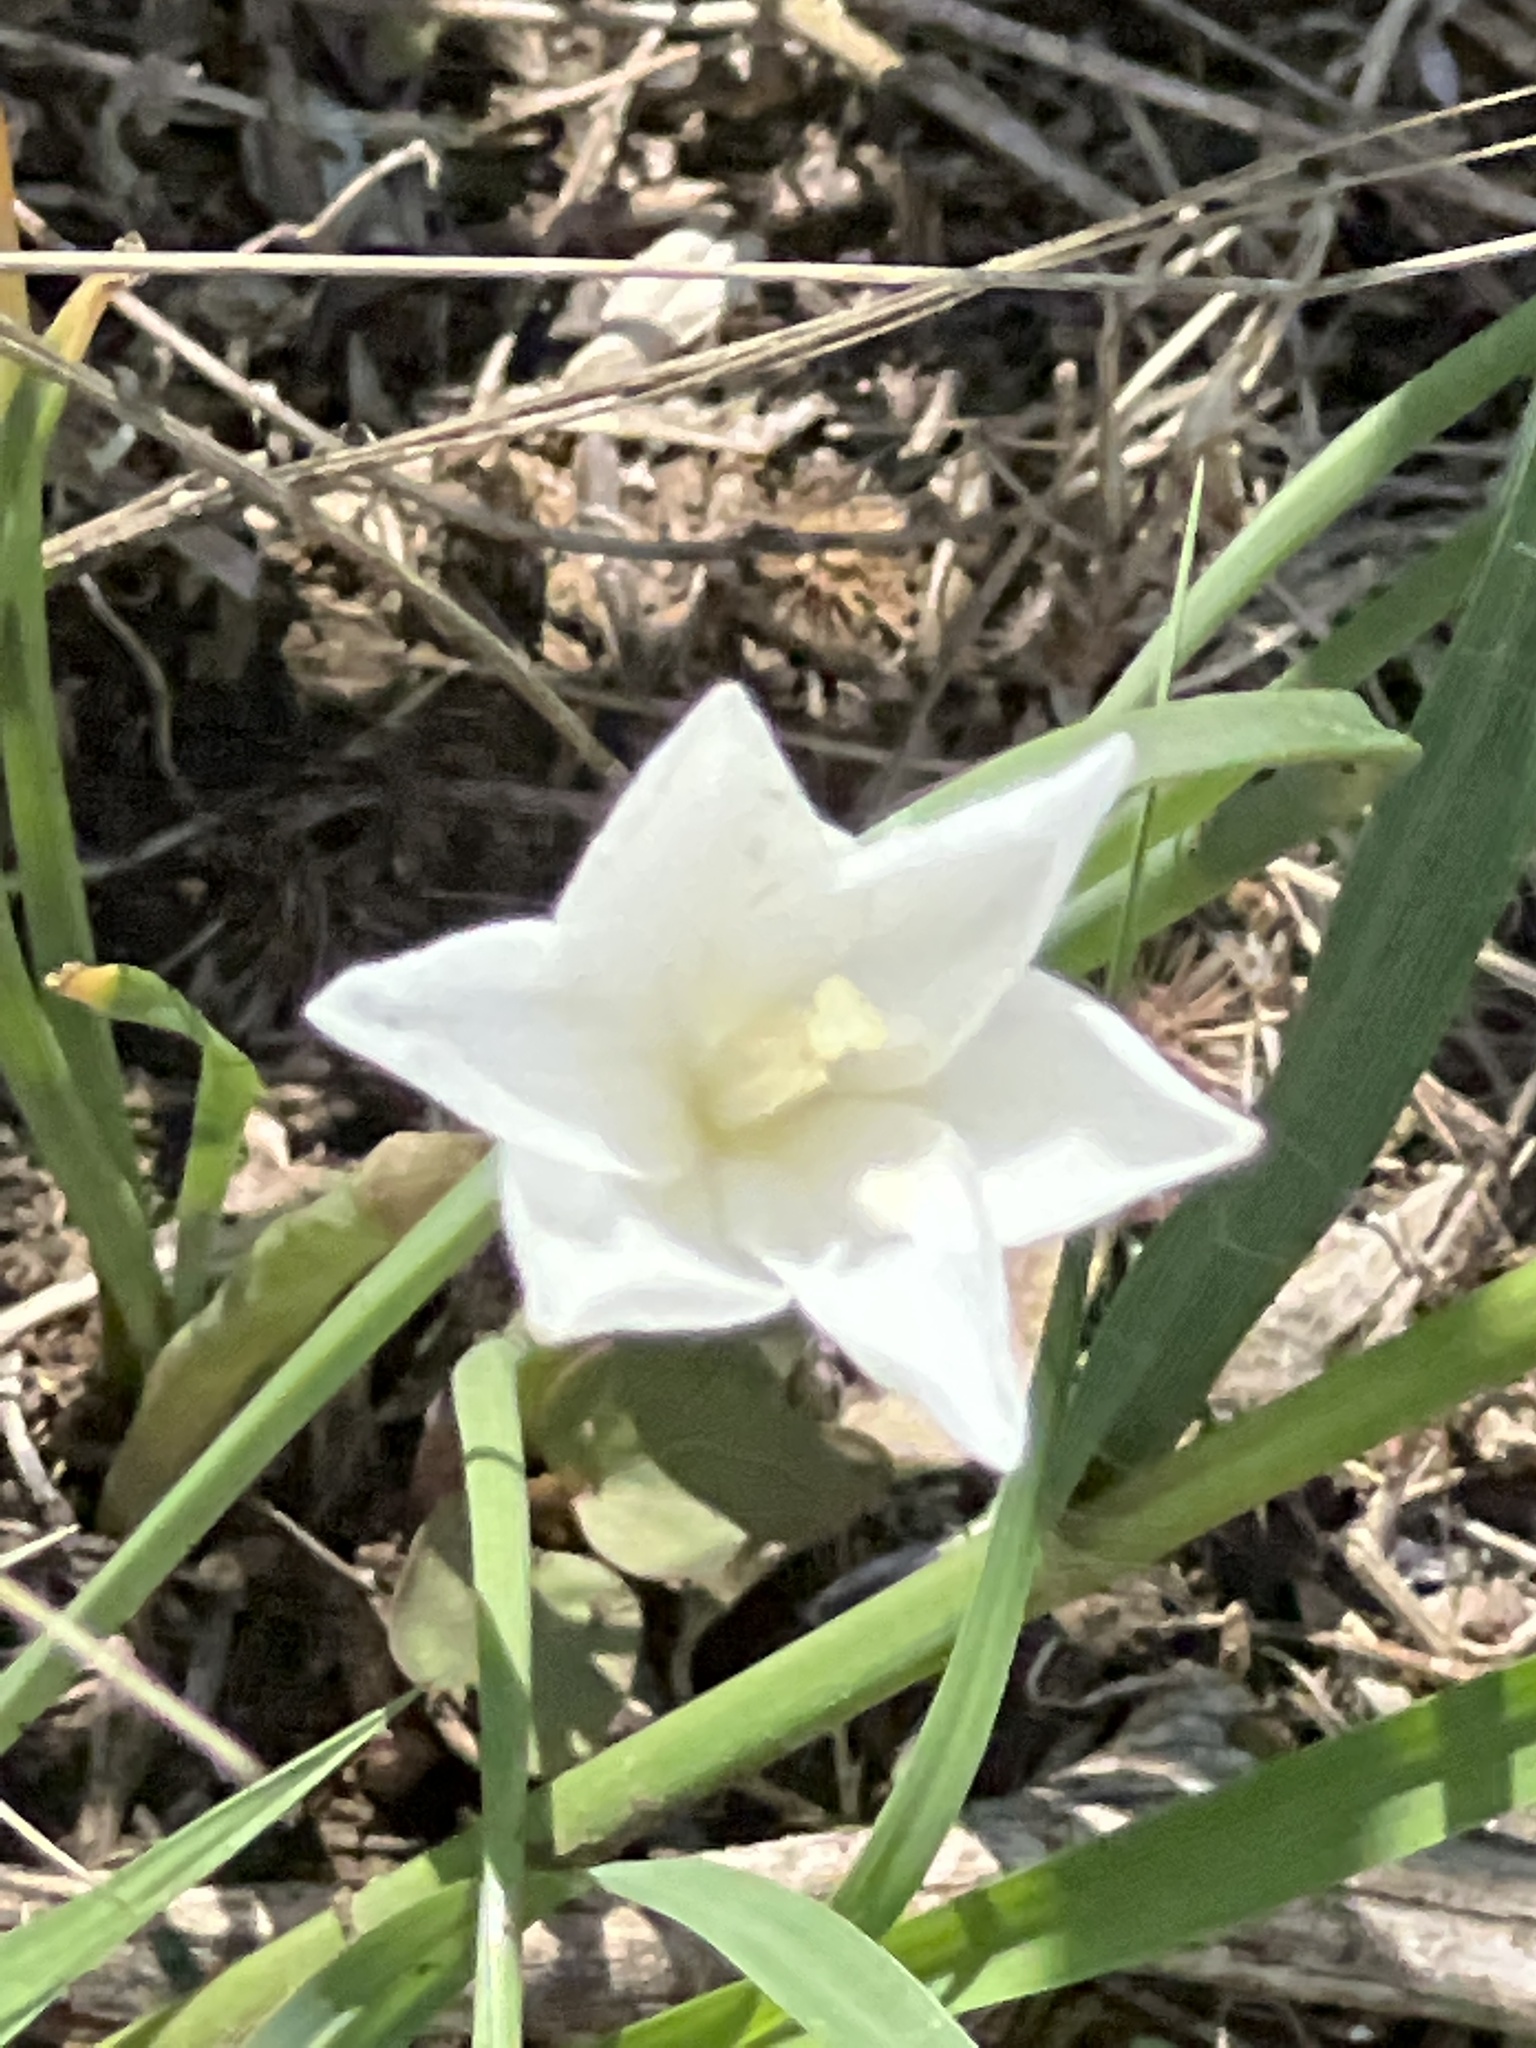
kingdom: Plantae
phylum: Tracheophyta
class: Liliopsida
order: Asparagales
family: Amaryllidaceae
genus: Zephyranthes
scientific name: Zephyranthes chlorosolen
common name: Evening rain-lily
